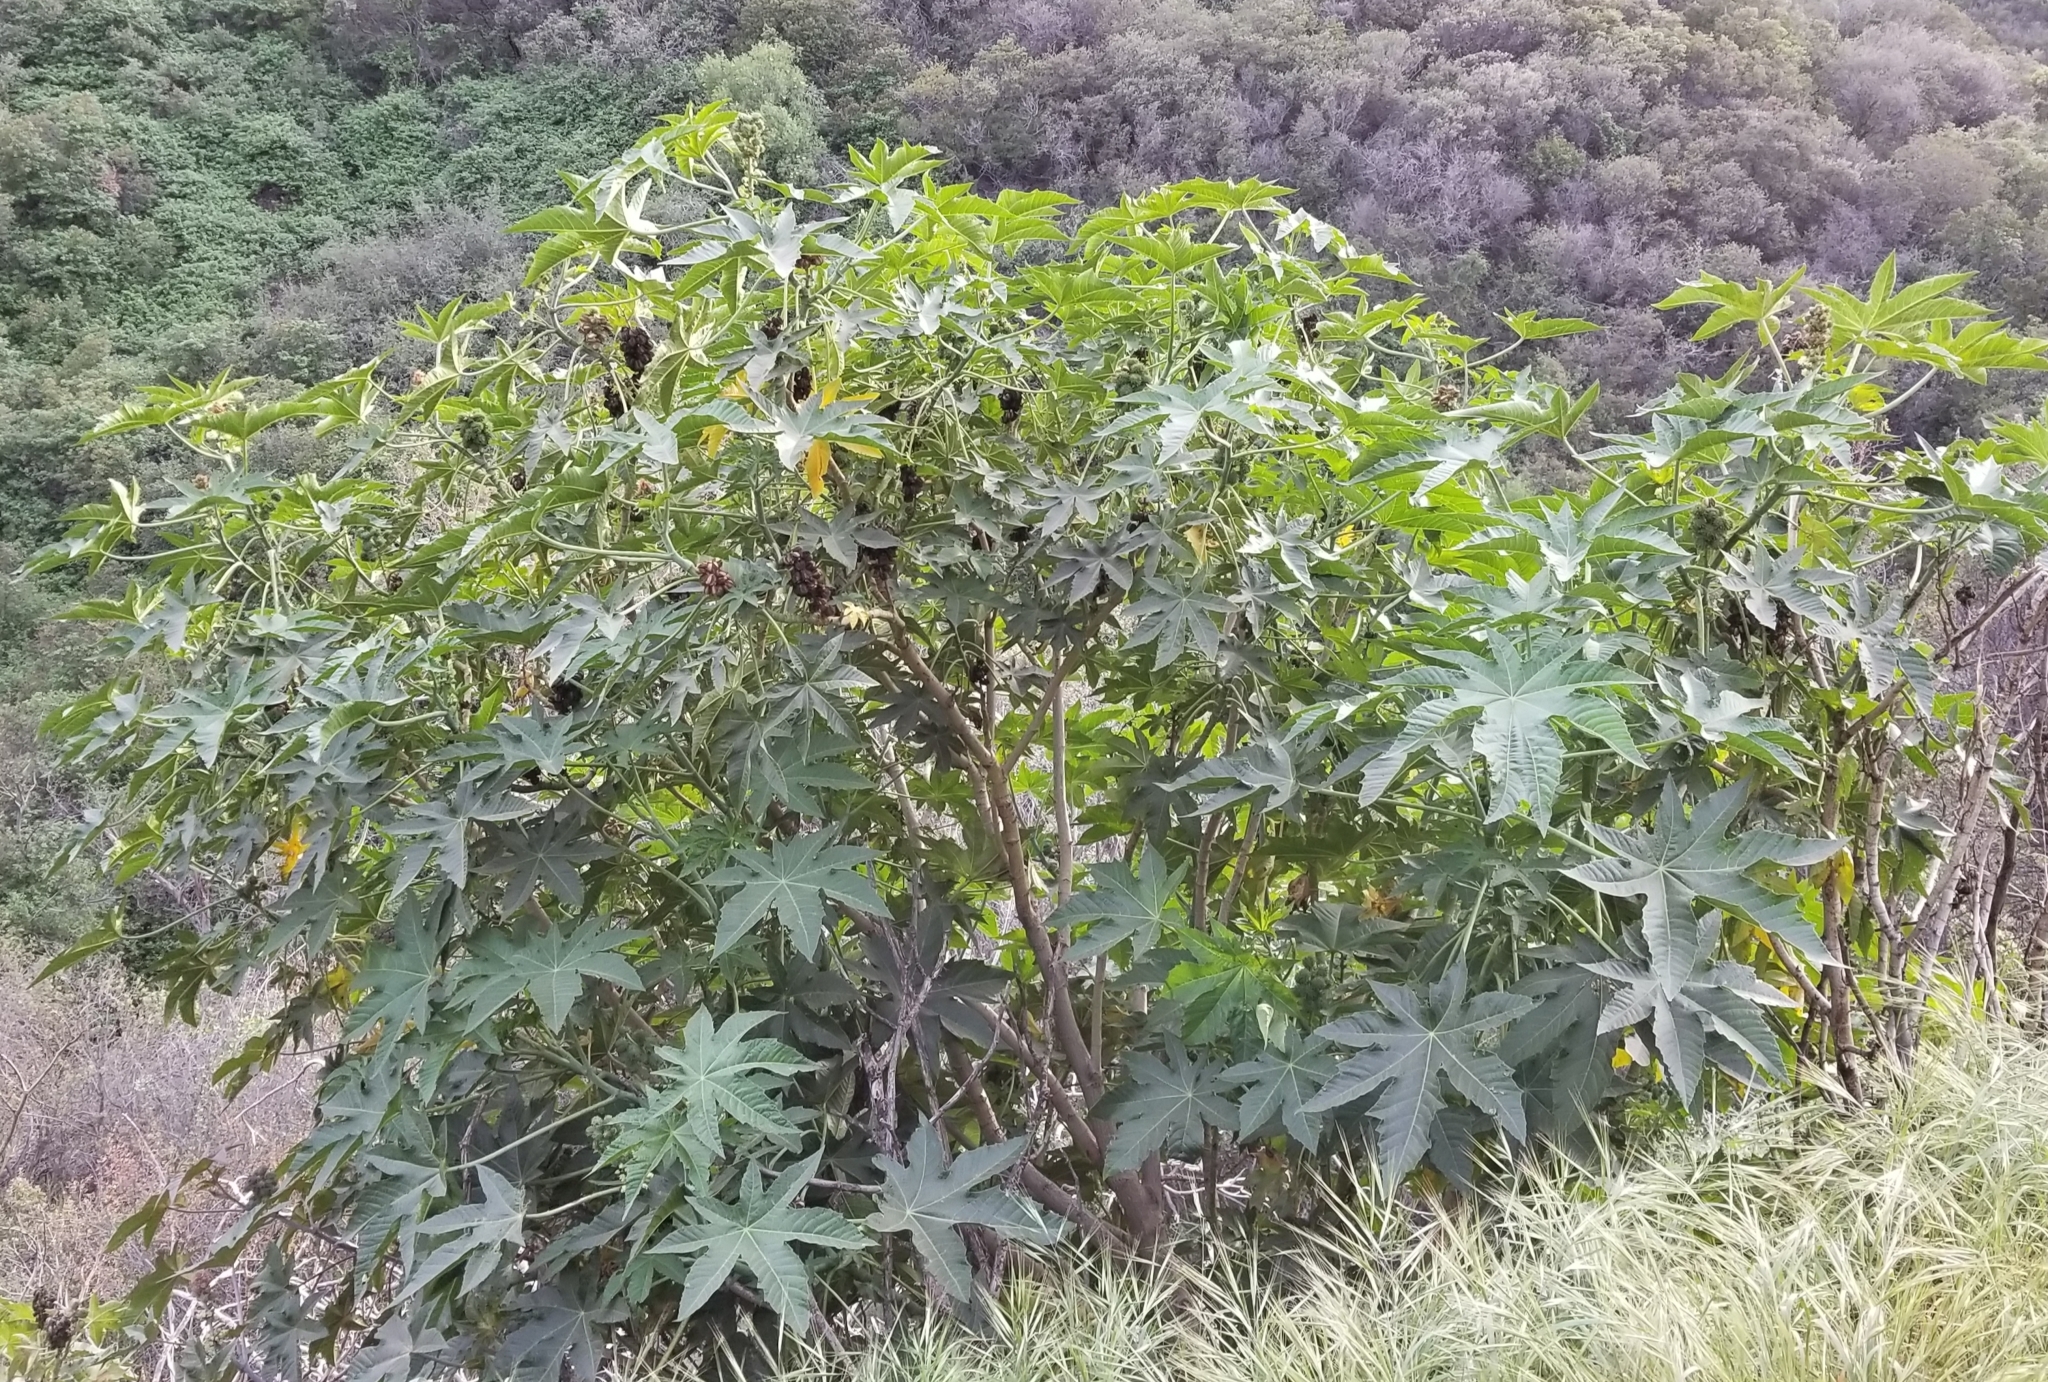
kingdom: Plantae
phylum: Tracheophyta
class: Magnoliopsida
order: Malpighiales
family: Euphorbiaceae
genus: Ricinus
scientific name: Ricinus communis
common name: Castor-oil-plant
